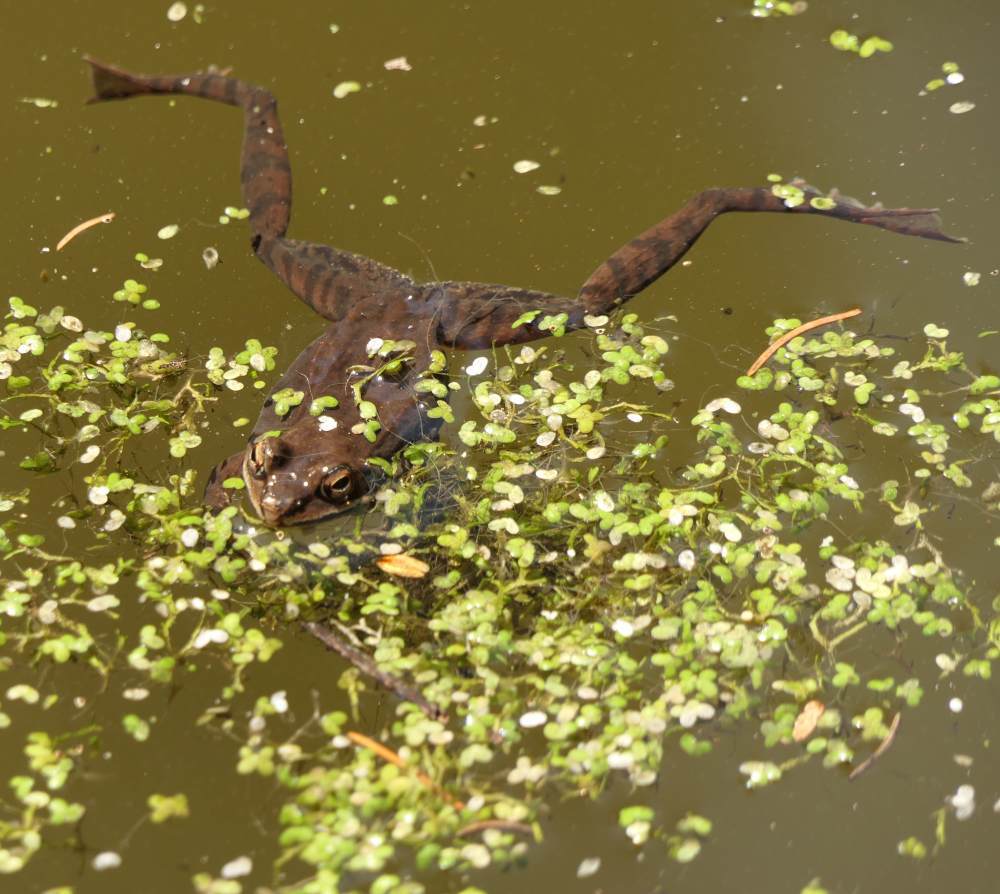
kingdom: Animalia
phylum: Chordata
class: Amphibia
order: Anura
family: Ranidae
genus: Lithobates
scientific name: Lithobates sylvaticus
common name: Wood frog
